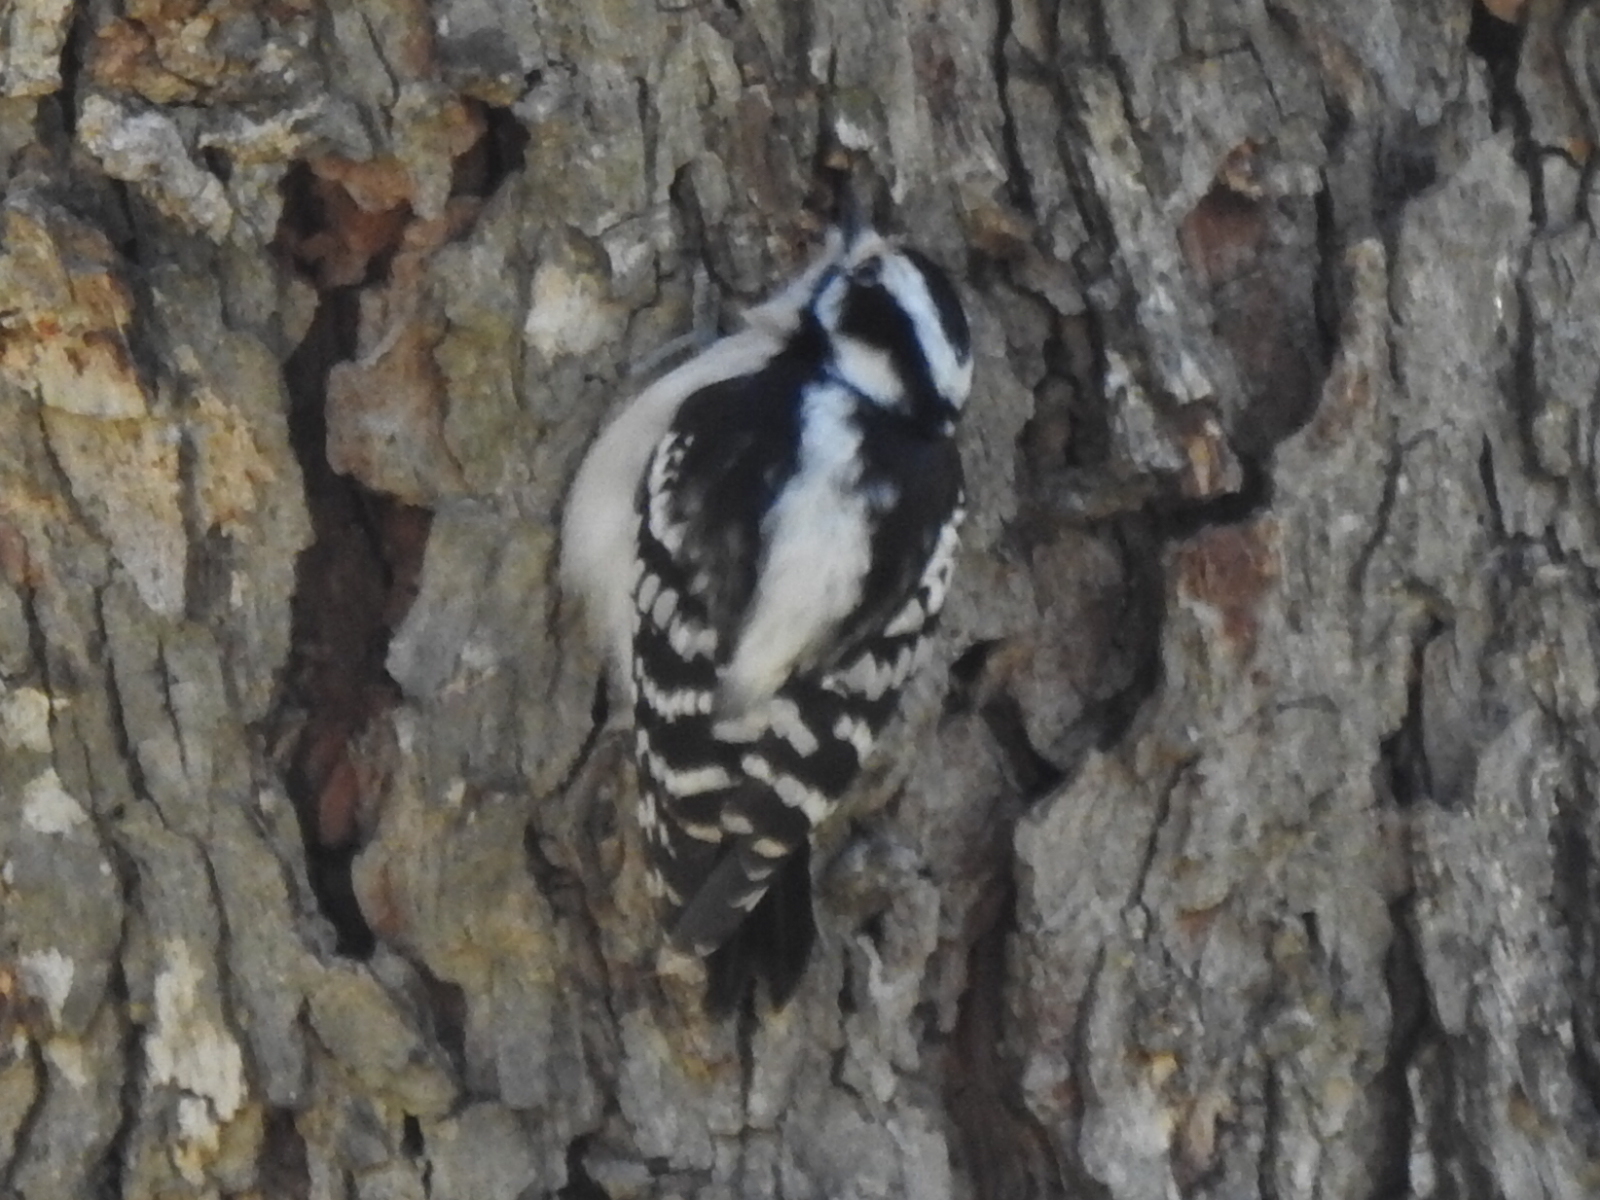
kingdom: Animalia
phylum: Chordata
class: Aves
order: Piciformes
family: Picidae
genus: Dryobates
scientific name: Dryobates pubescens
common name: Downy woodpecker
